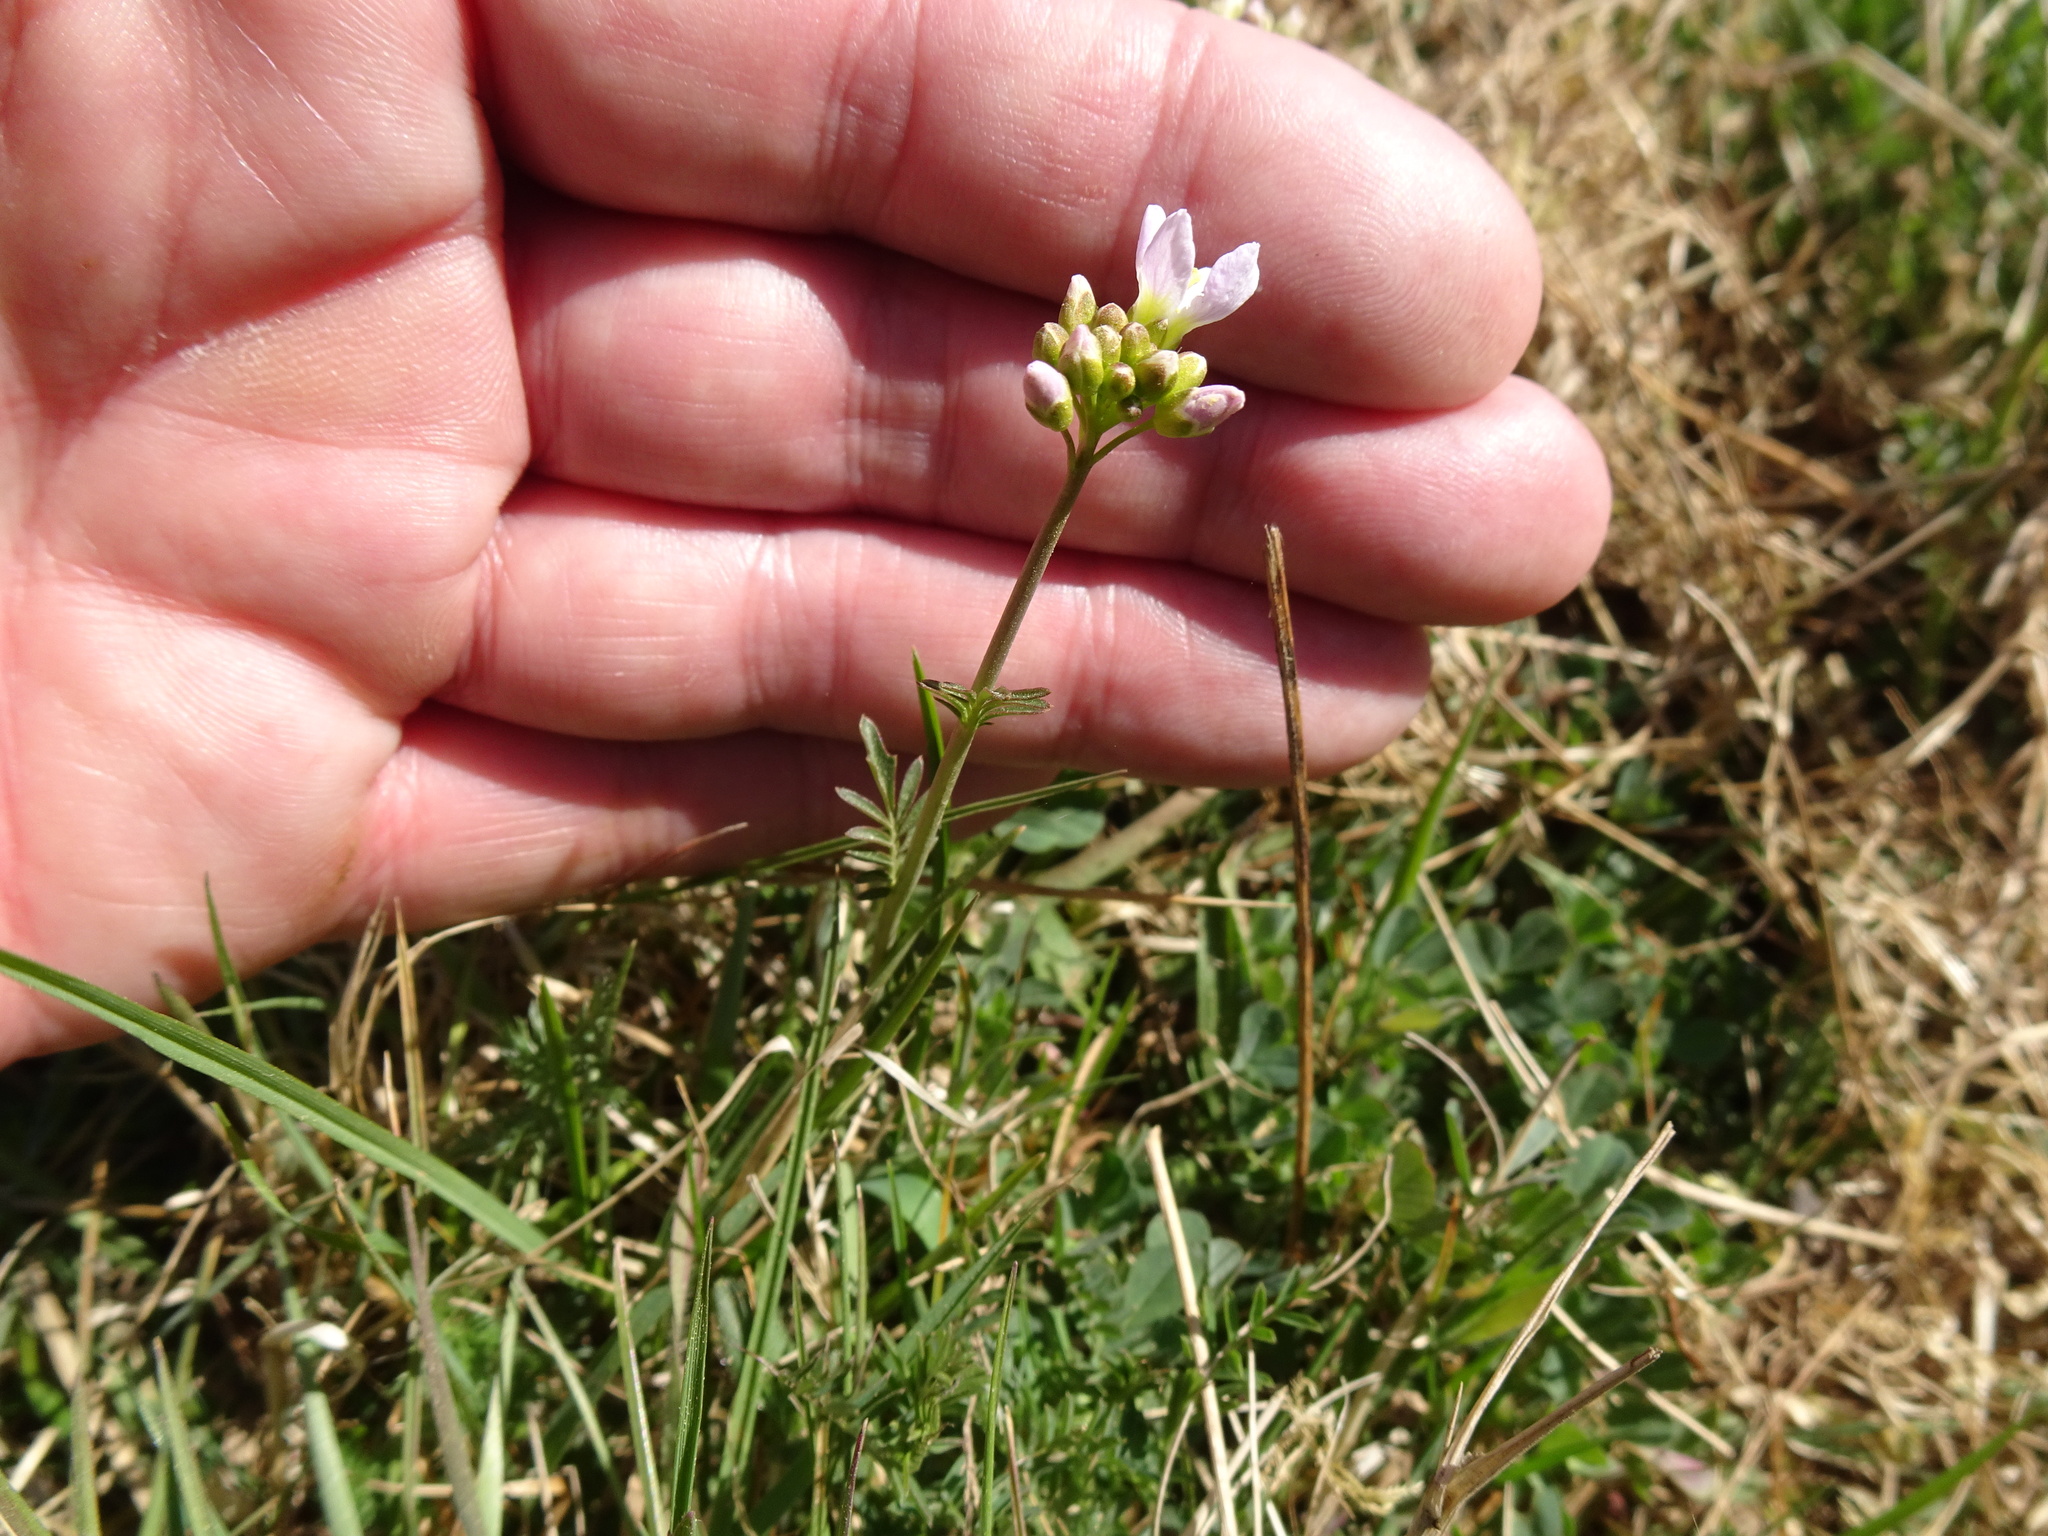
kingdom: Plantae
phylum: Tracheophyta
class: Magnoliopsida
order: Brassicales
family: Brassicaceae
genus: Cardamine
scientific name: Cardamine pratensis
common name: Cuckoo flower
